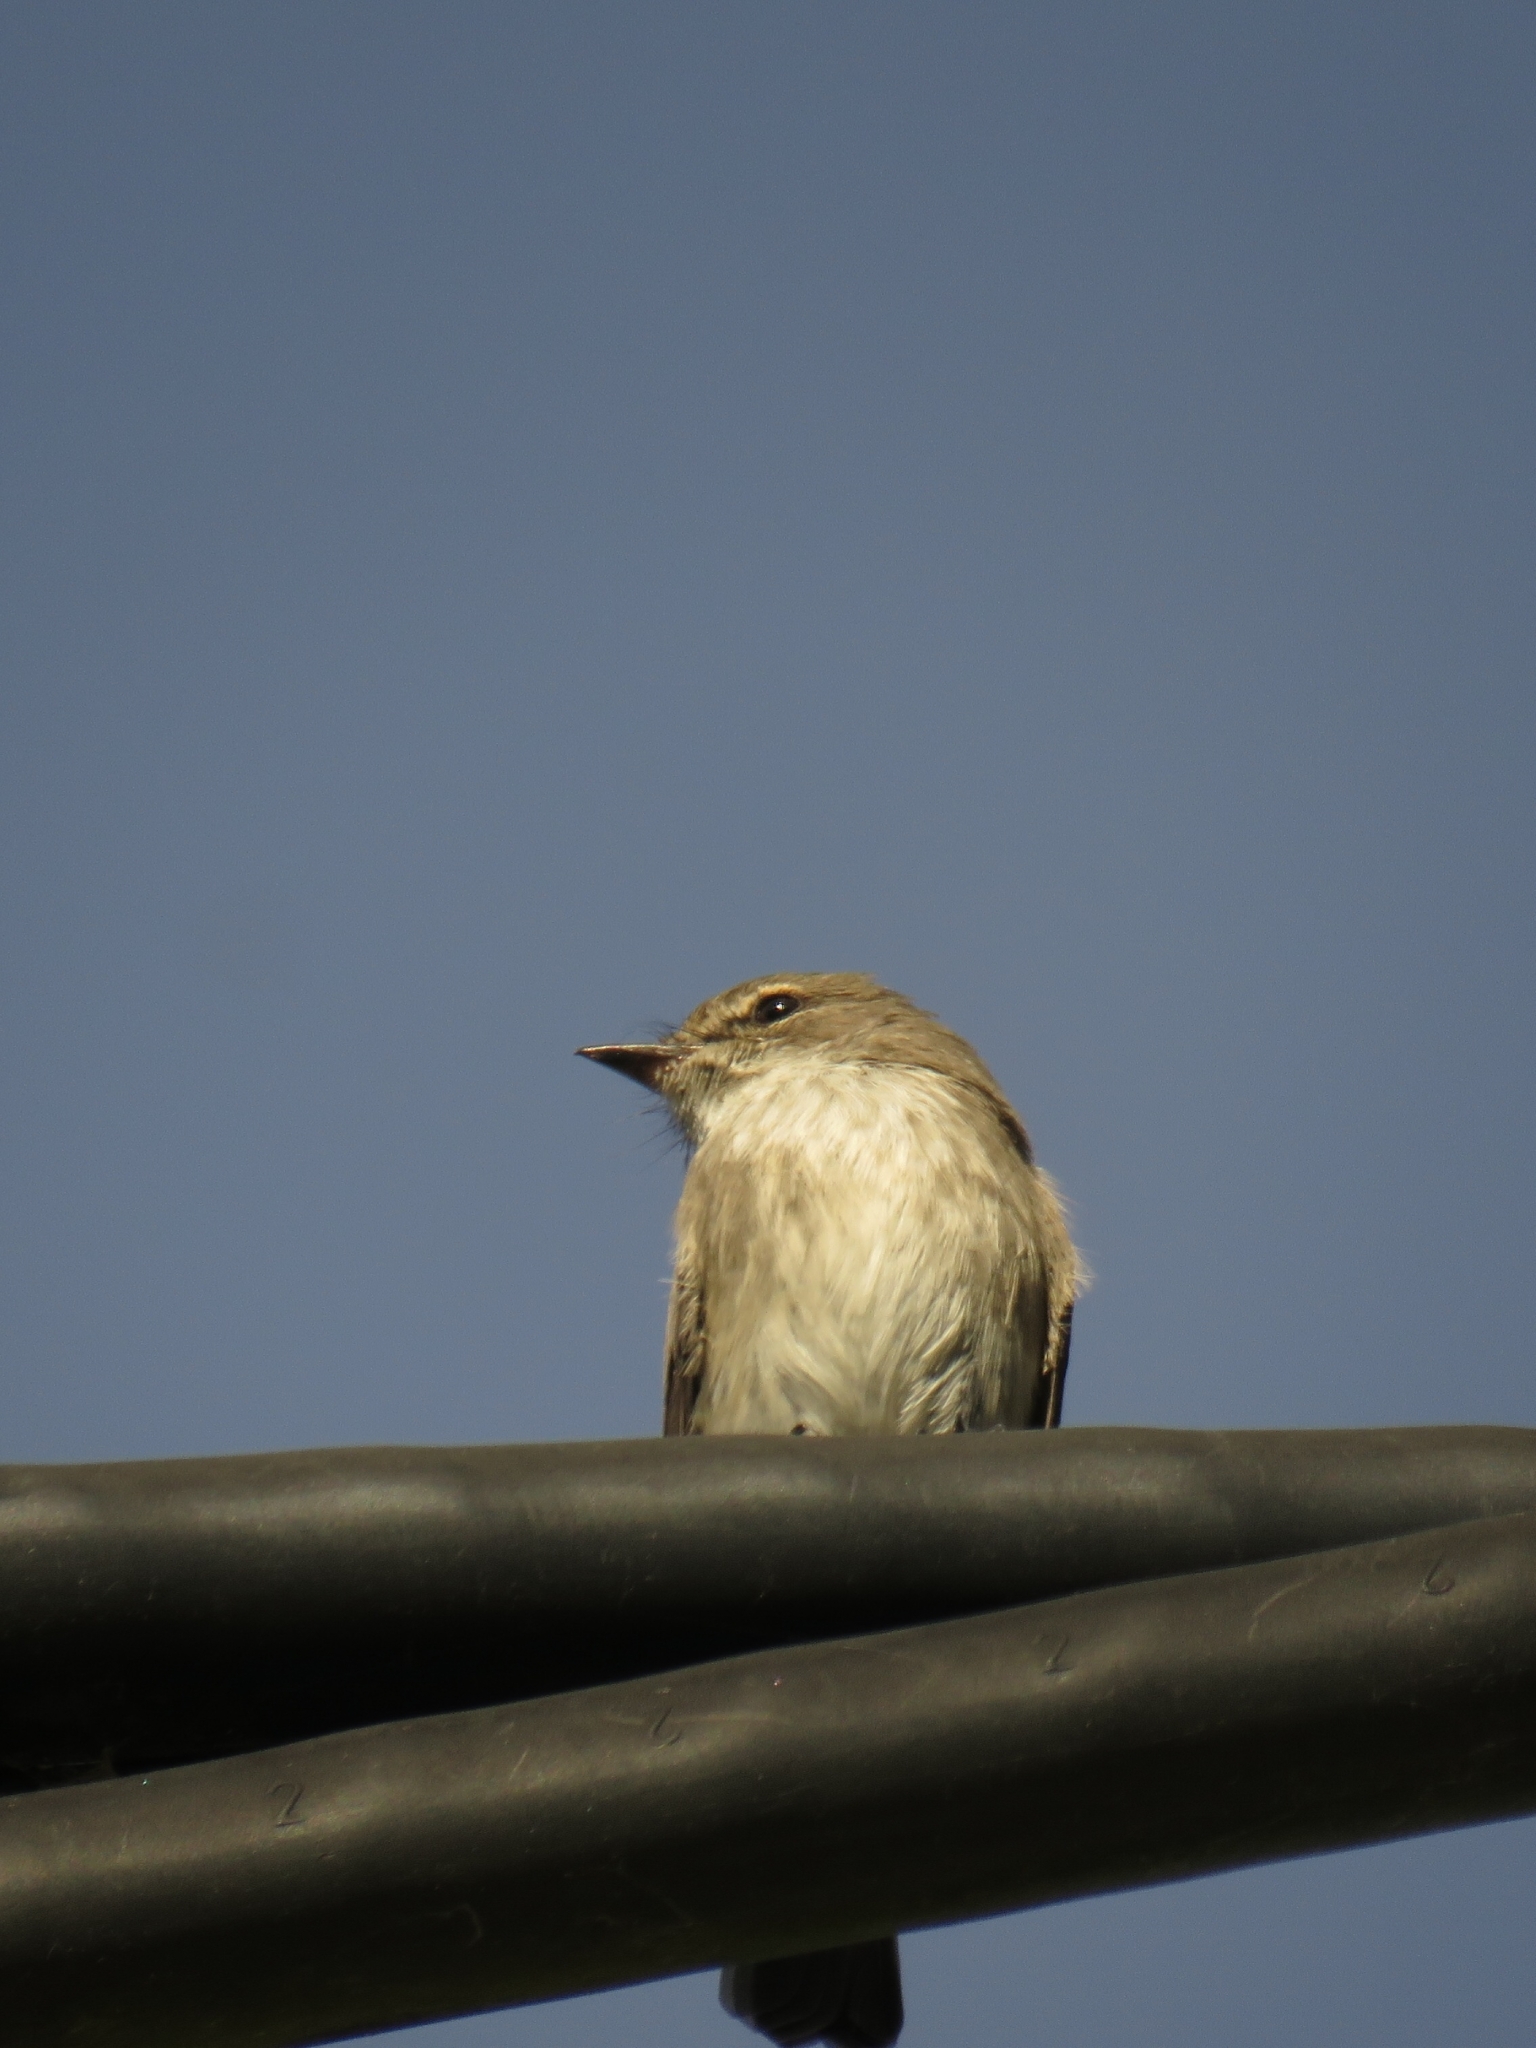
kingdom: Animalia
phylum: Chordata
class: Aves
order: Passeriformes
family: Muscicapidae
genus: Muscicapa
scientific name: Muscicapa adusta
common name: African dusky flycatcher
